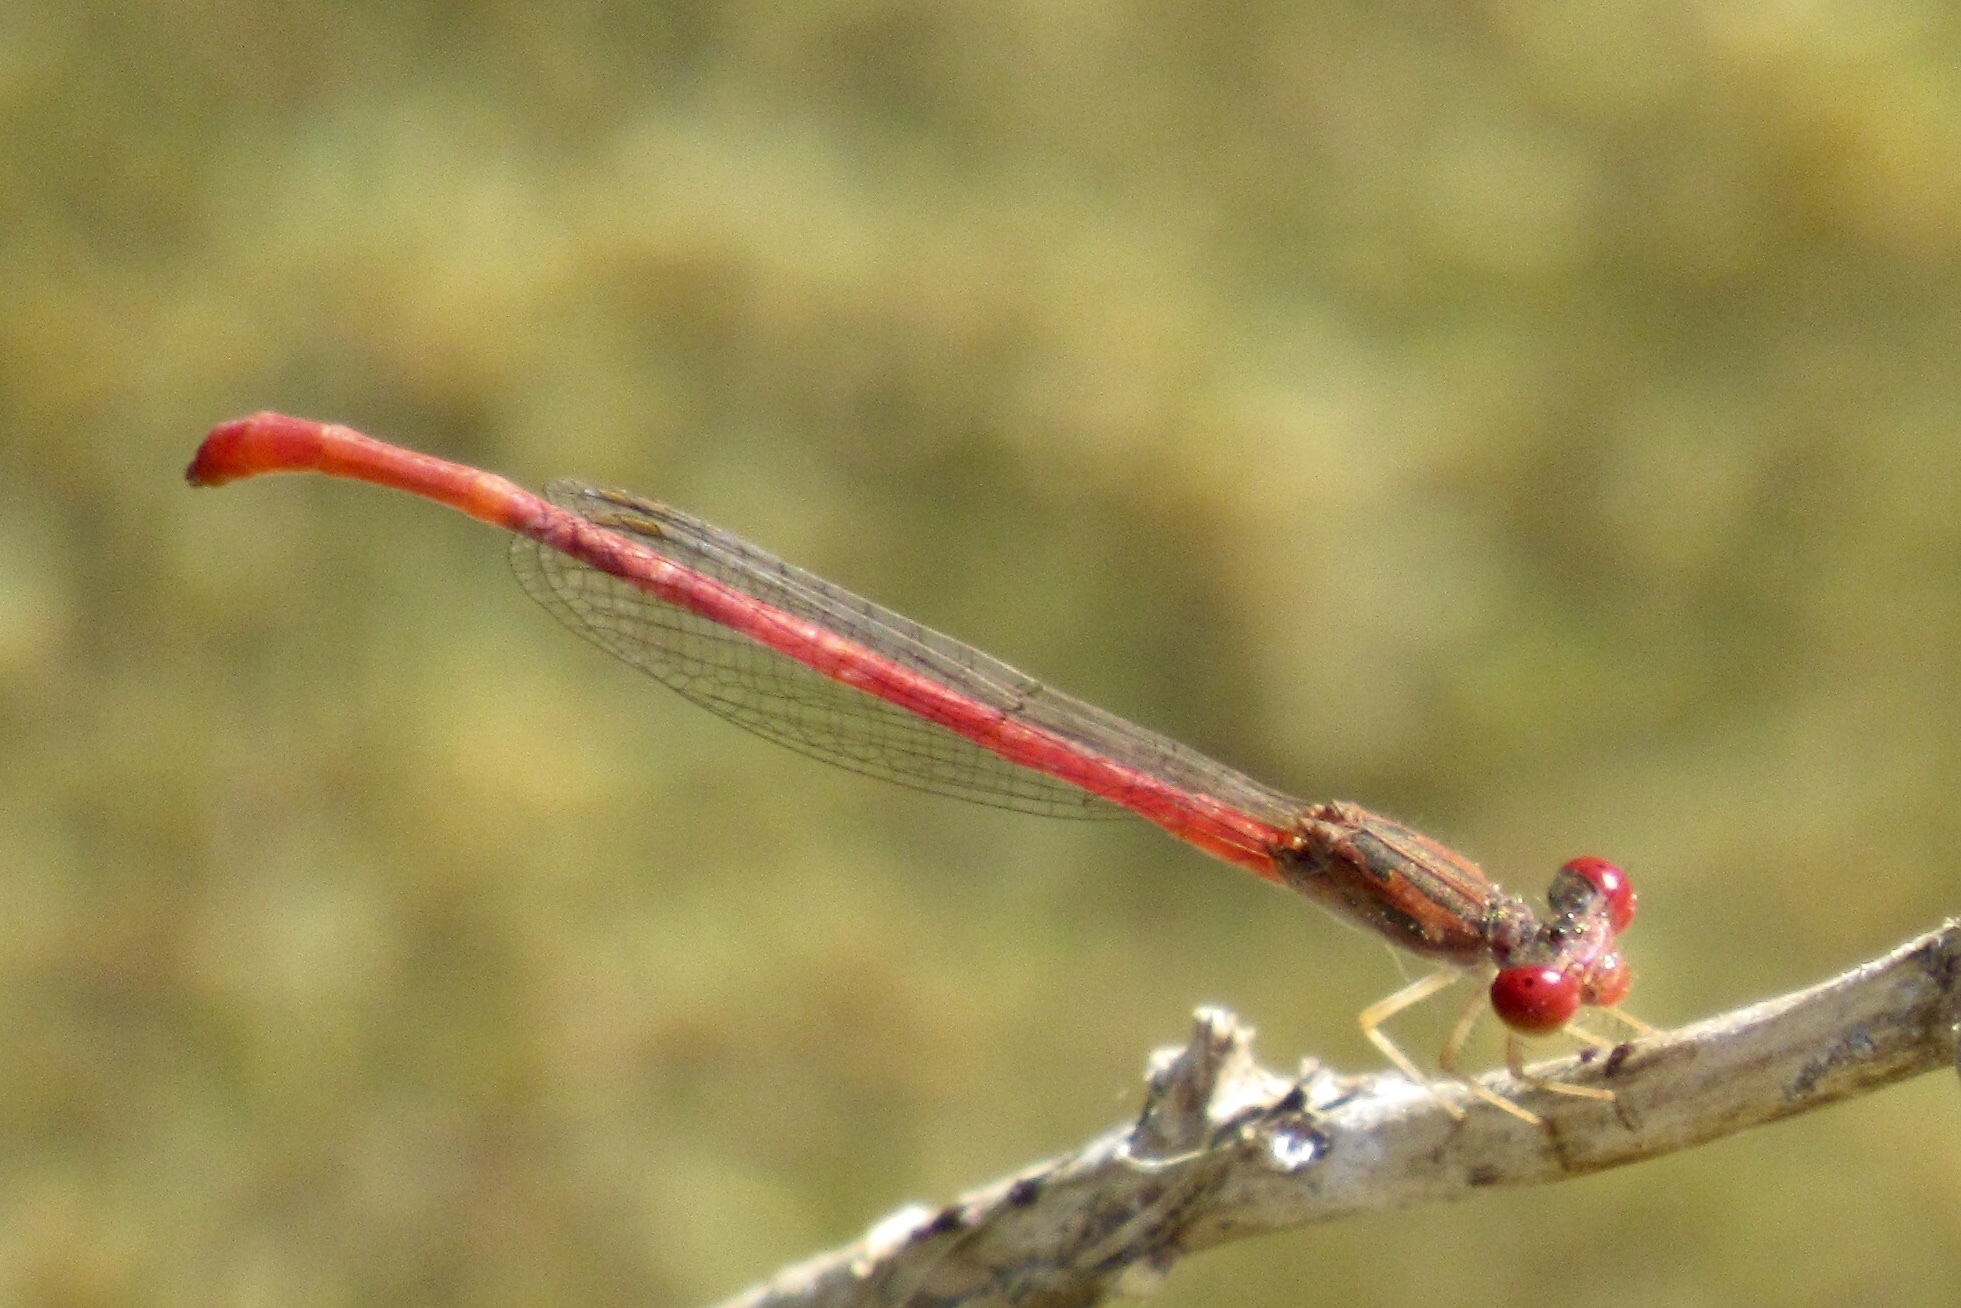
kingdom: Animalia
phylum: Arthropoda
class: Insecta
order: Odonata
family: Coenagrionidae
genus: Telebasis
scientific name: Telebasis salva
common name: Desert firetail
